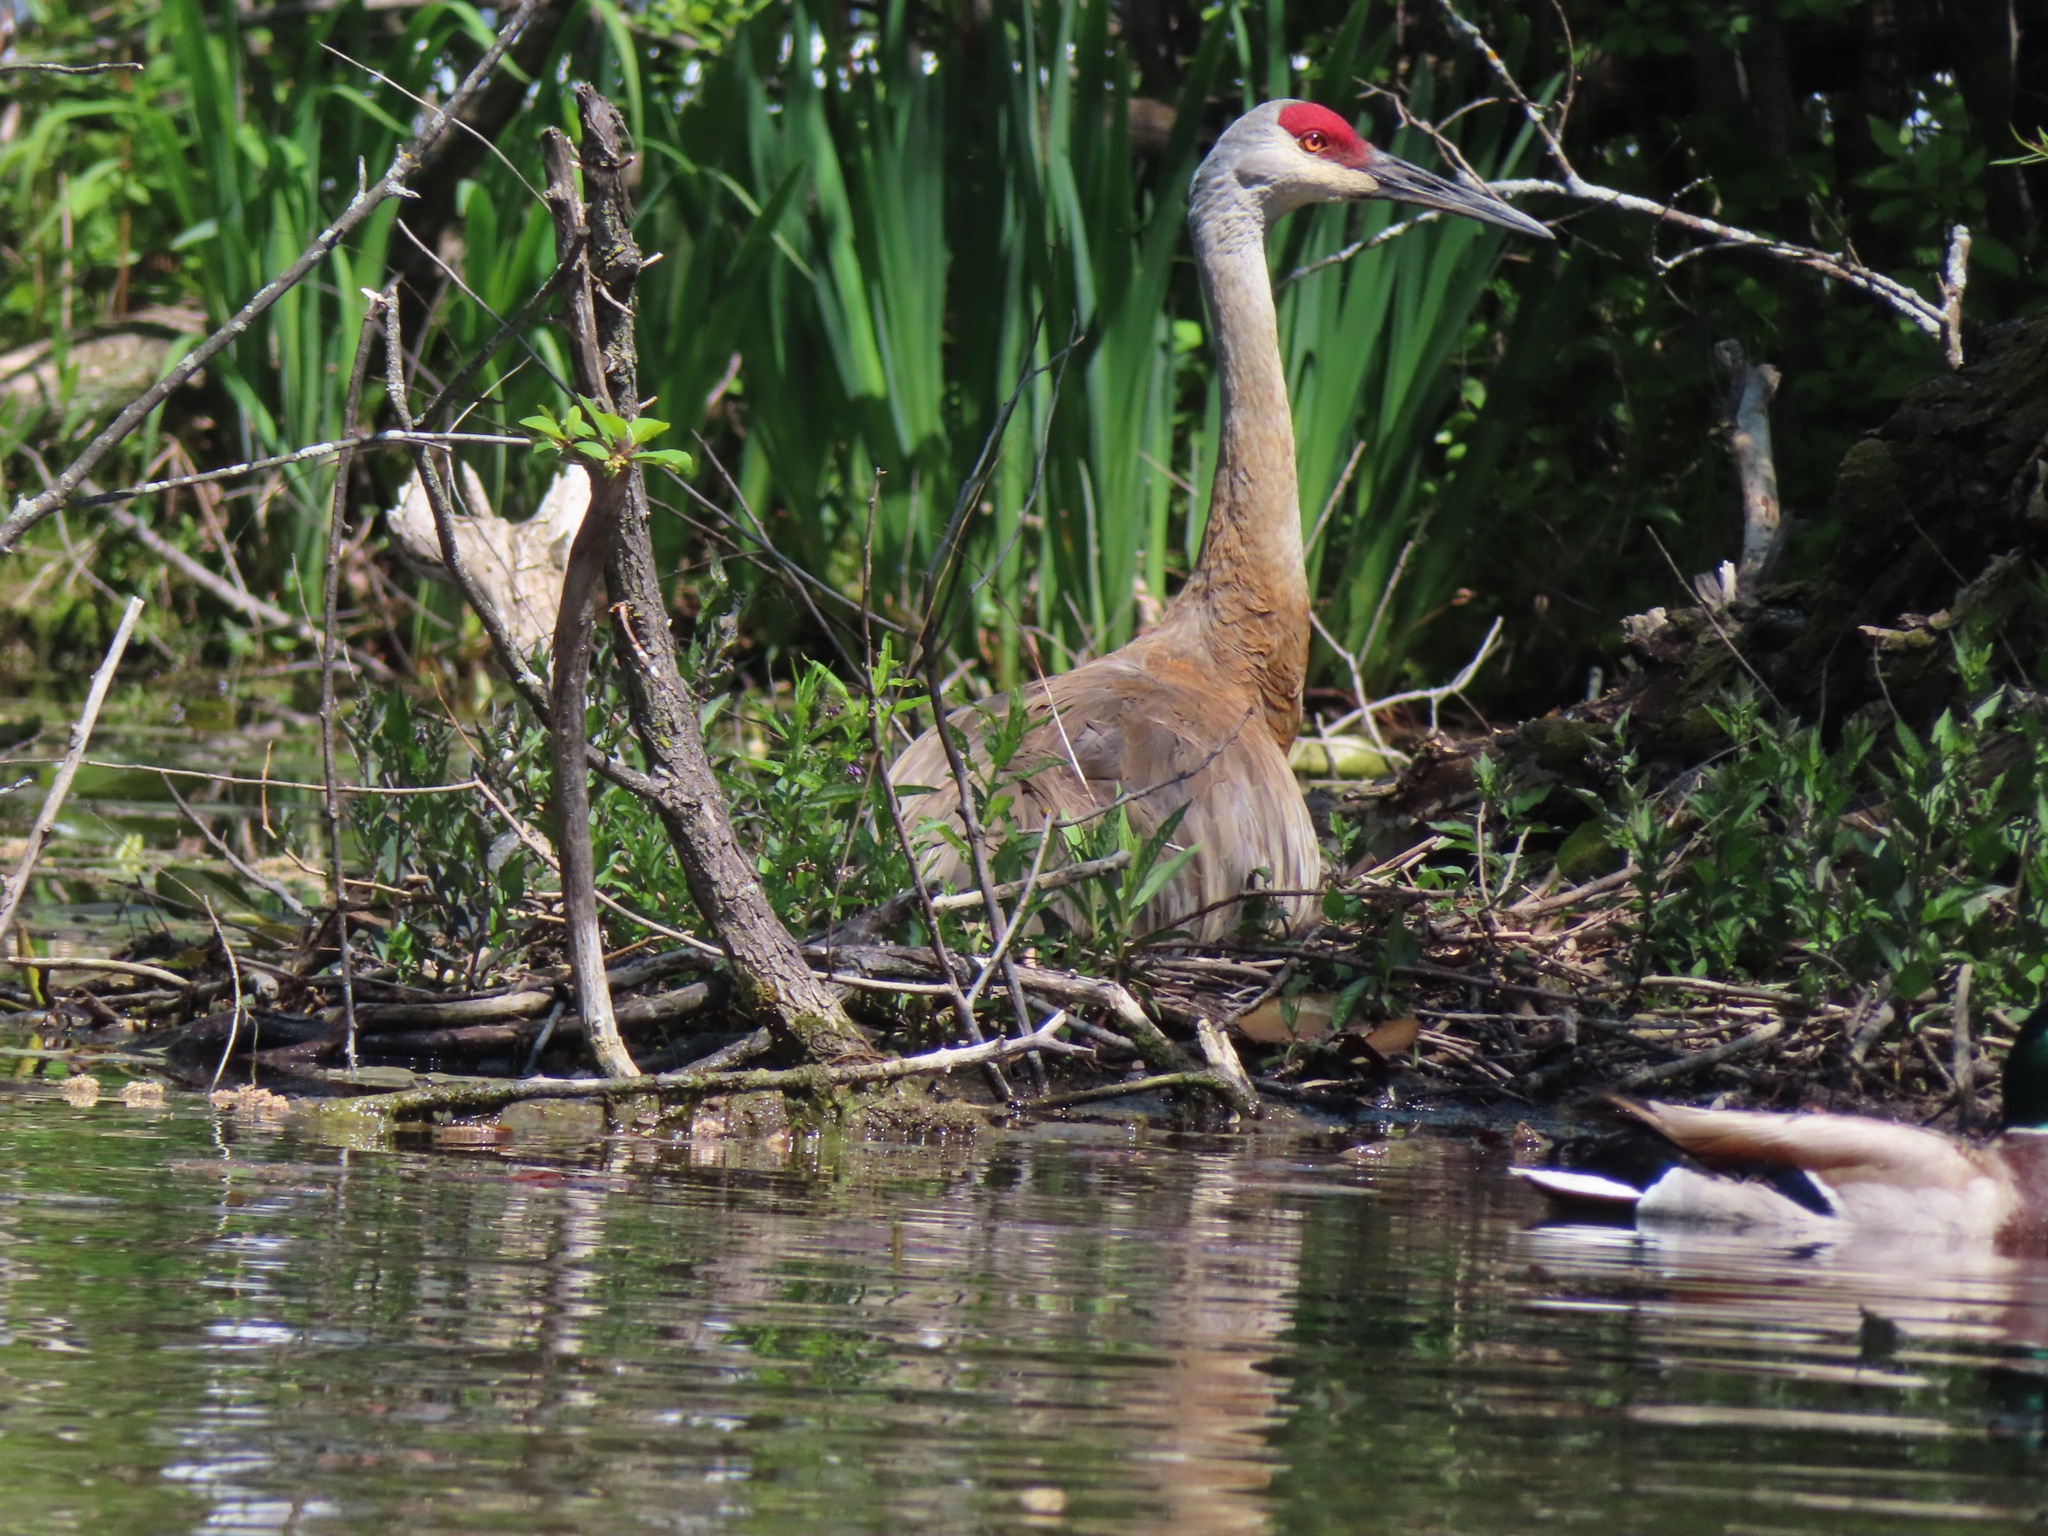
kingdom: Animalia
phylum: Chordata
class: Aves
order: Gruiformes
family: Gruidae
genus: Grus
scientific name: Grus canadensis
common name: Sandhill crane
